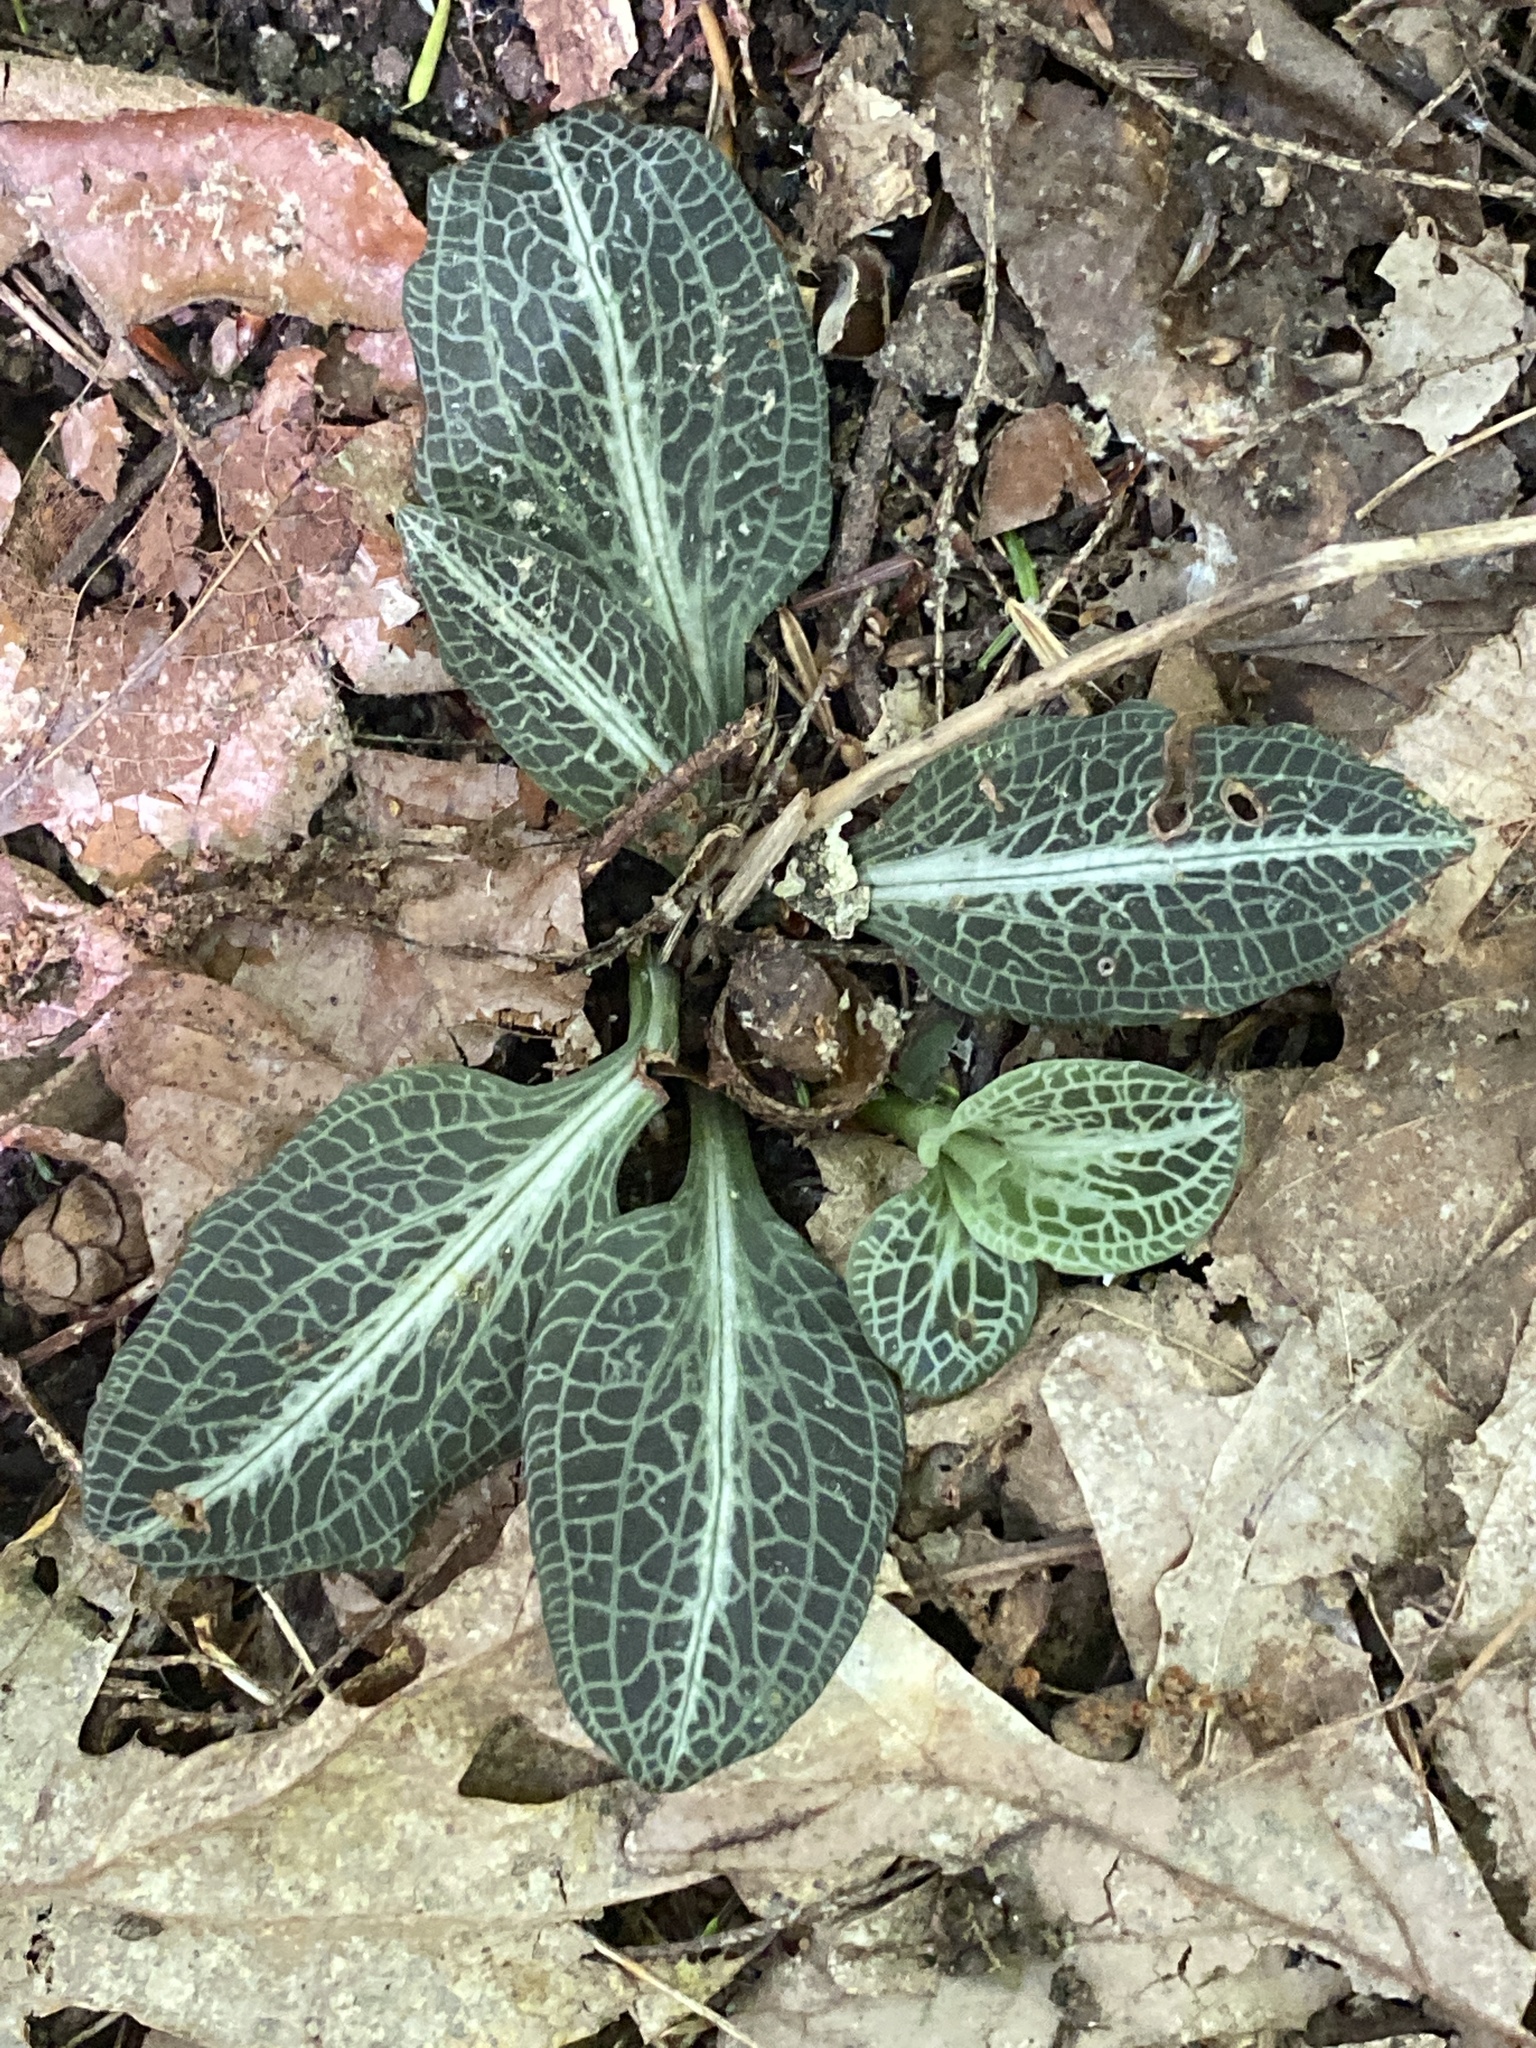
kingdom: Plantae
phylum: Tracheophyta
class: Liliopsida
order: Asparagales
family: Orchidaceae
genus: Goodyera
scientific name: Goodyera pubescens
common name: Downy rattlesnake-plantain
